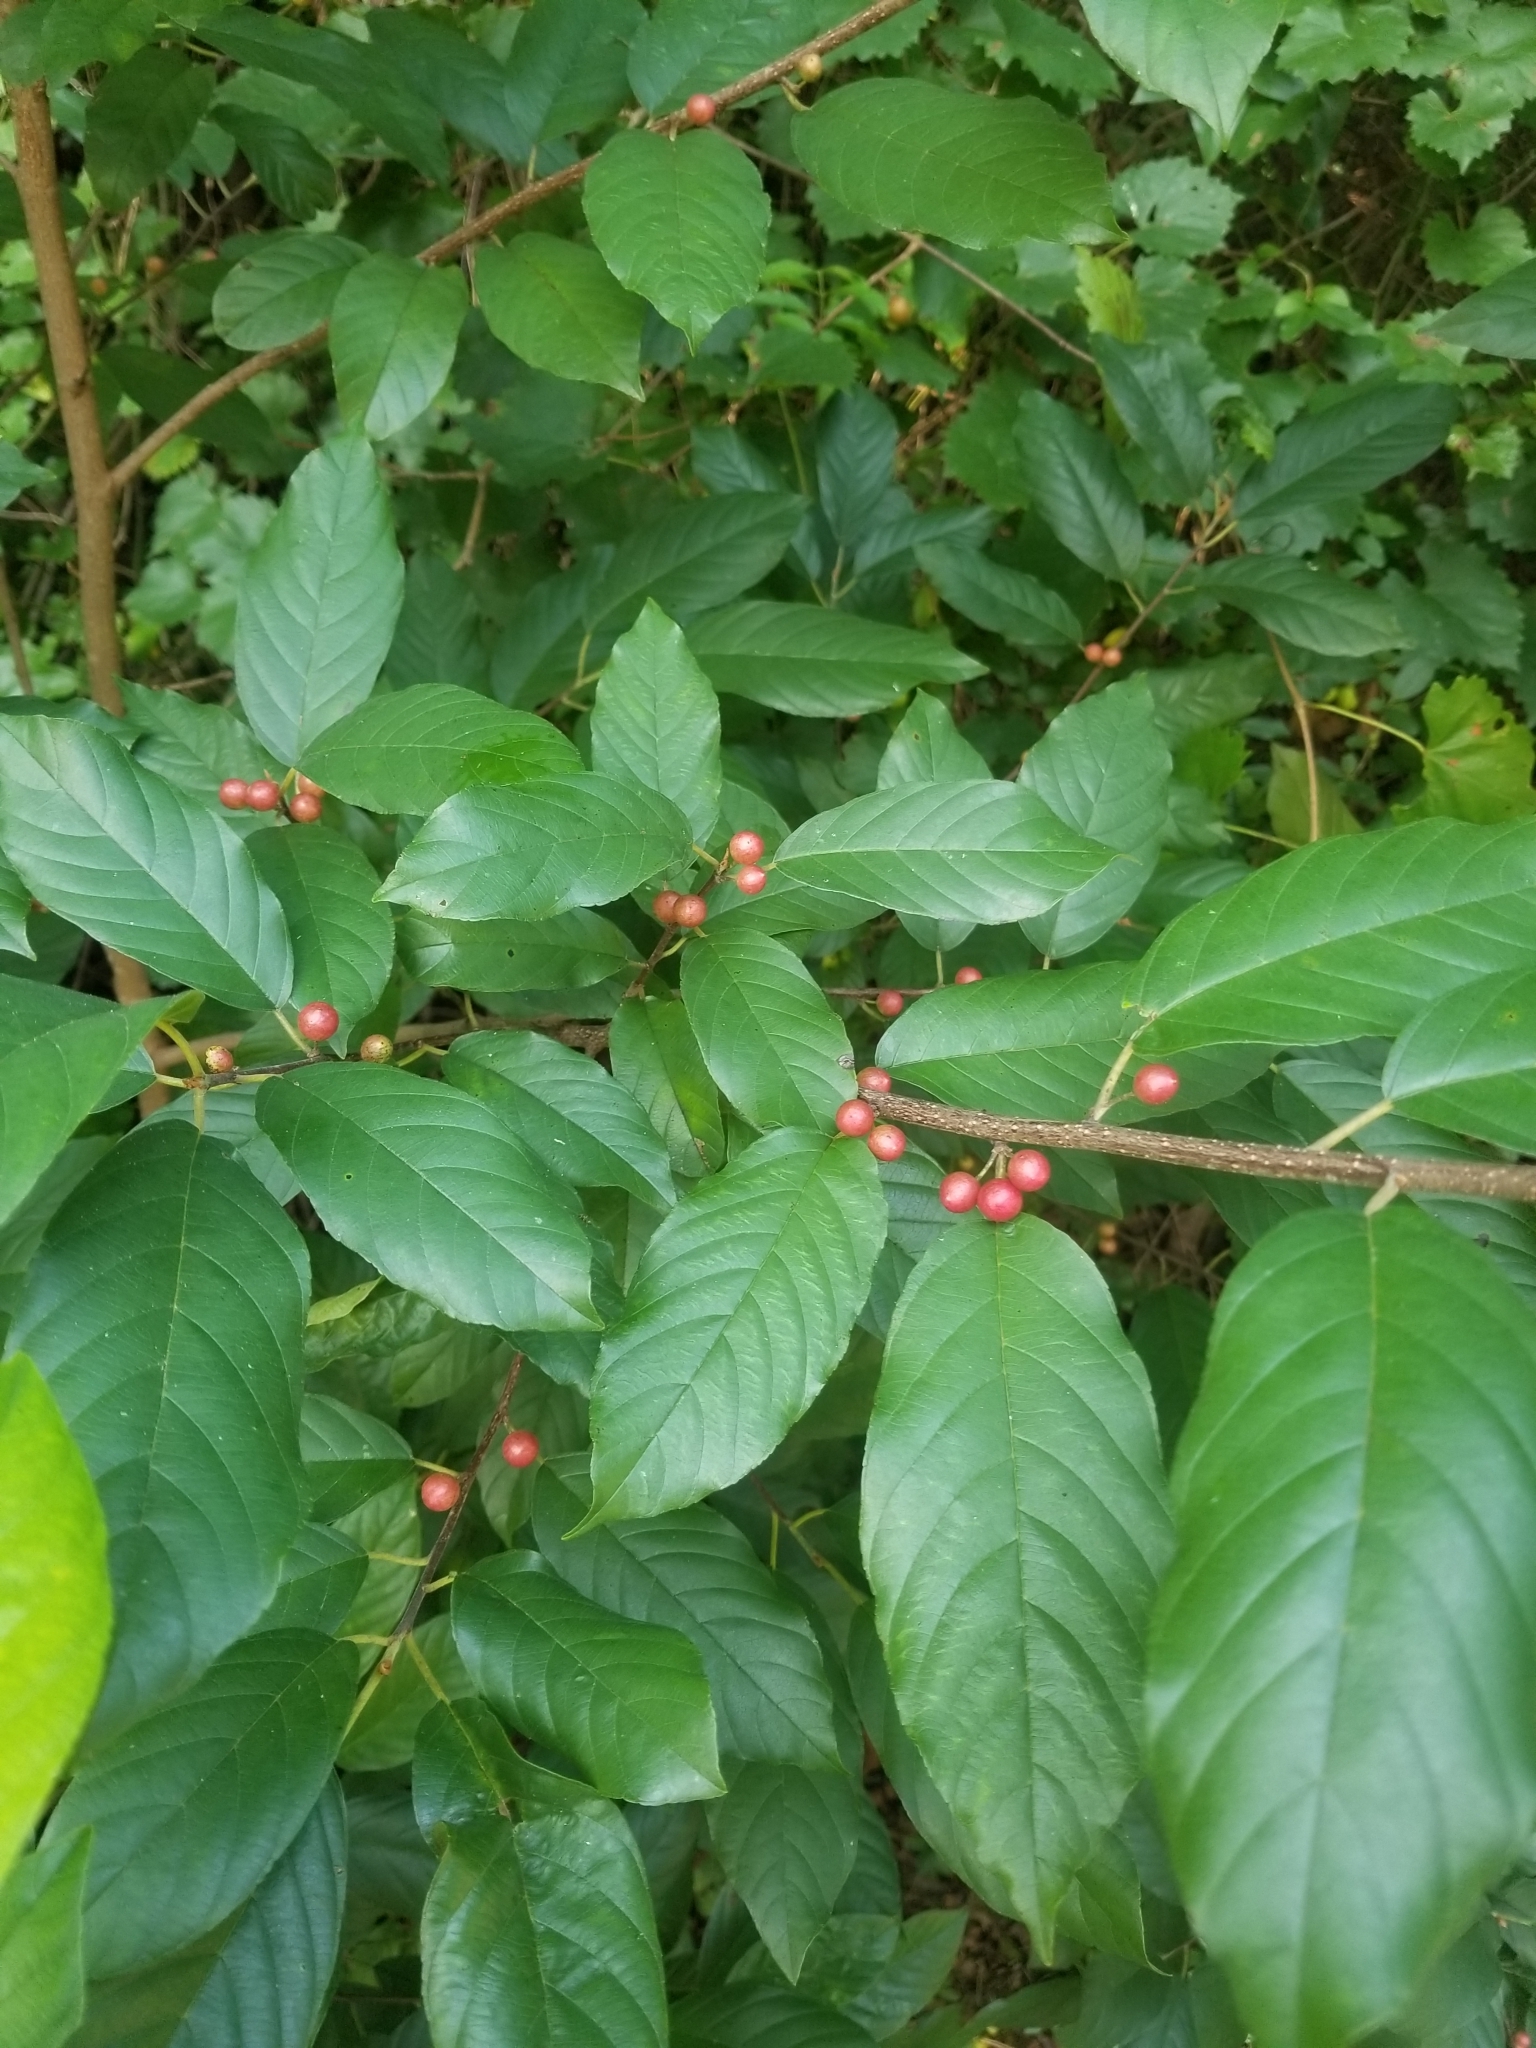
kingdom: Plantae
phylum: Tracheophyta
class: Magnoliopsida
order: Rosales
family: Rhamnaceae
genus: Frangula
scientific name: Frangula caroliniana
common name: Carolina buckthorn
